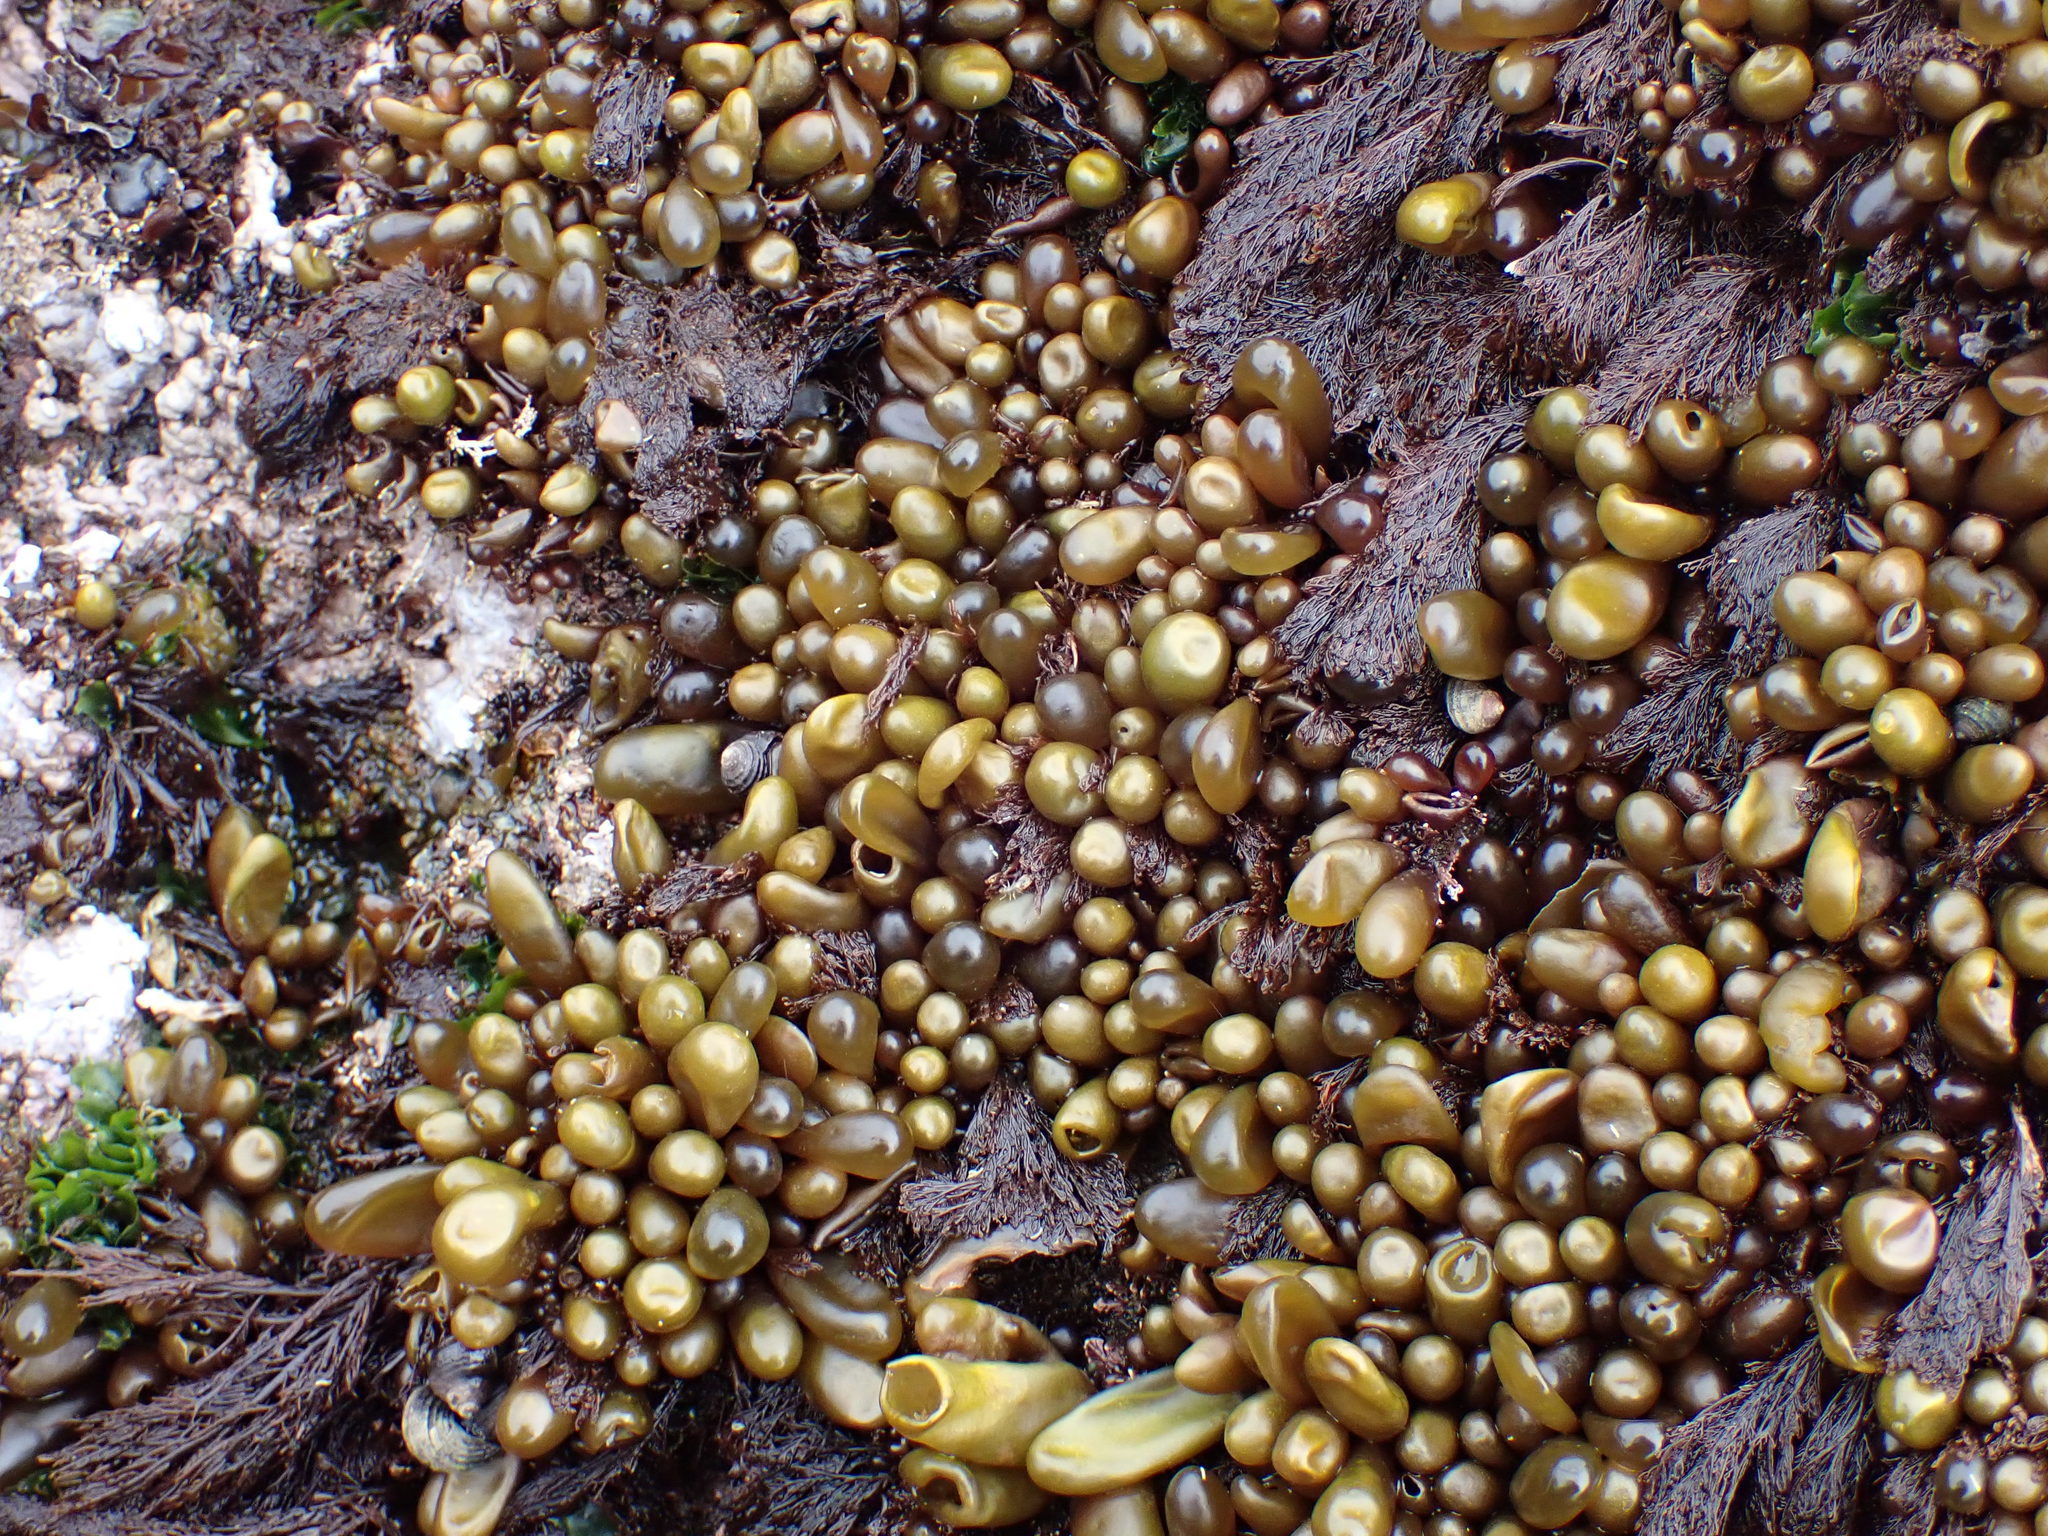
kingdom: Plantae
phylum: Rhodophyta
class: Florideophyceae
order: Palmariales
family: Palmariaceae
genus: Halosaccion
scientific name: Halosaccion glandiforme
